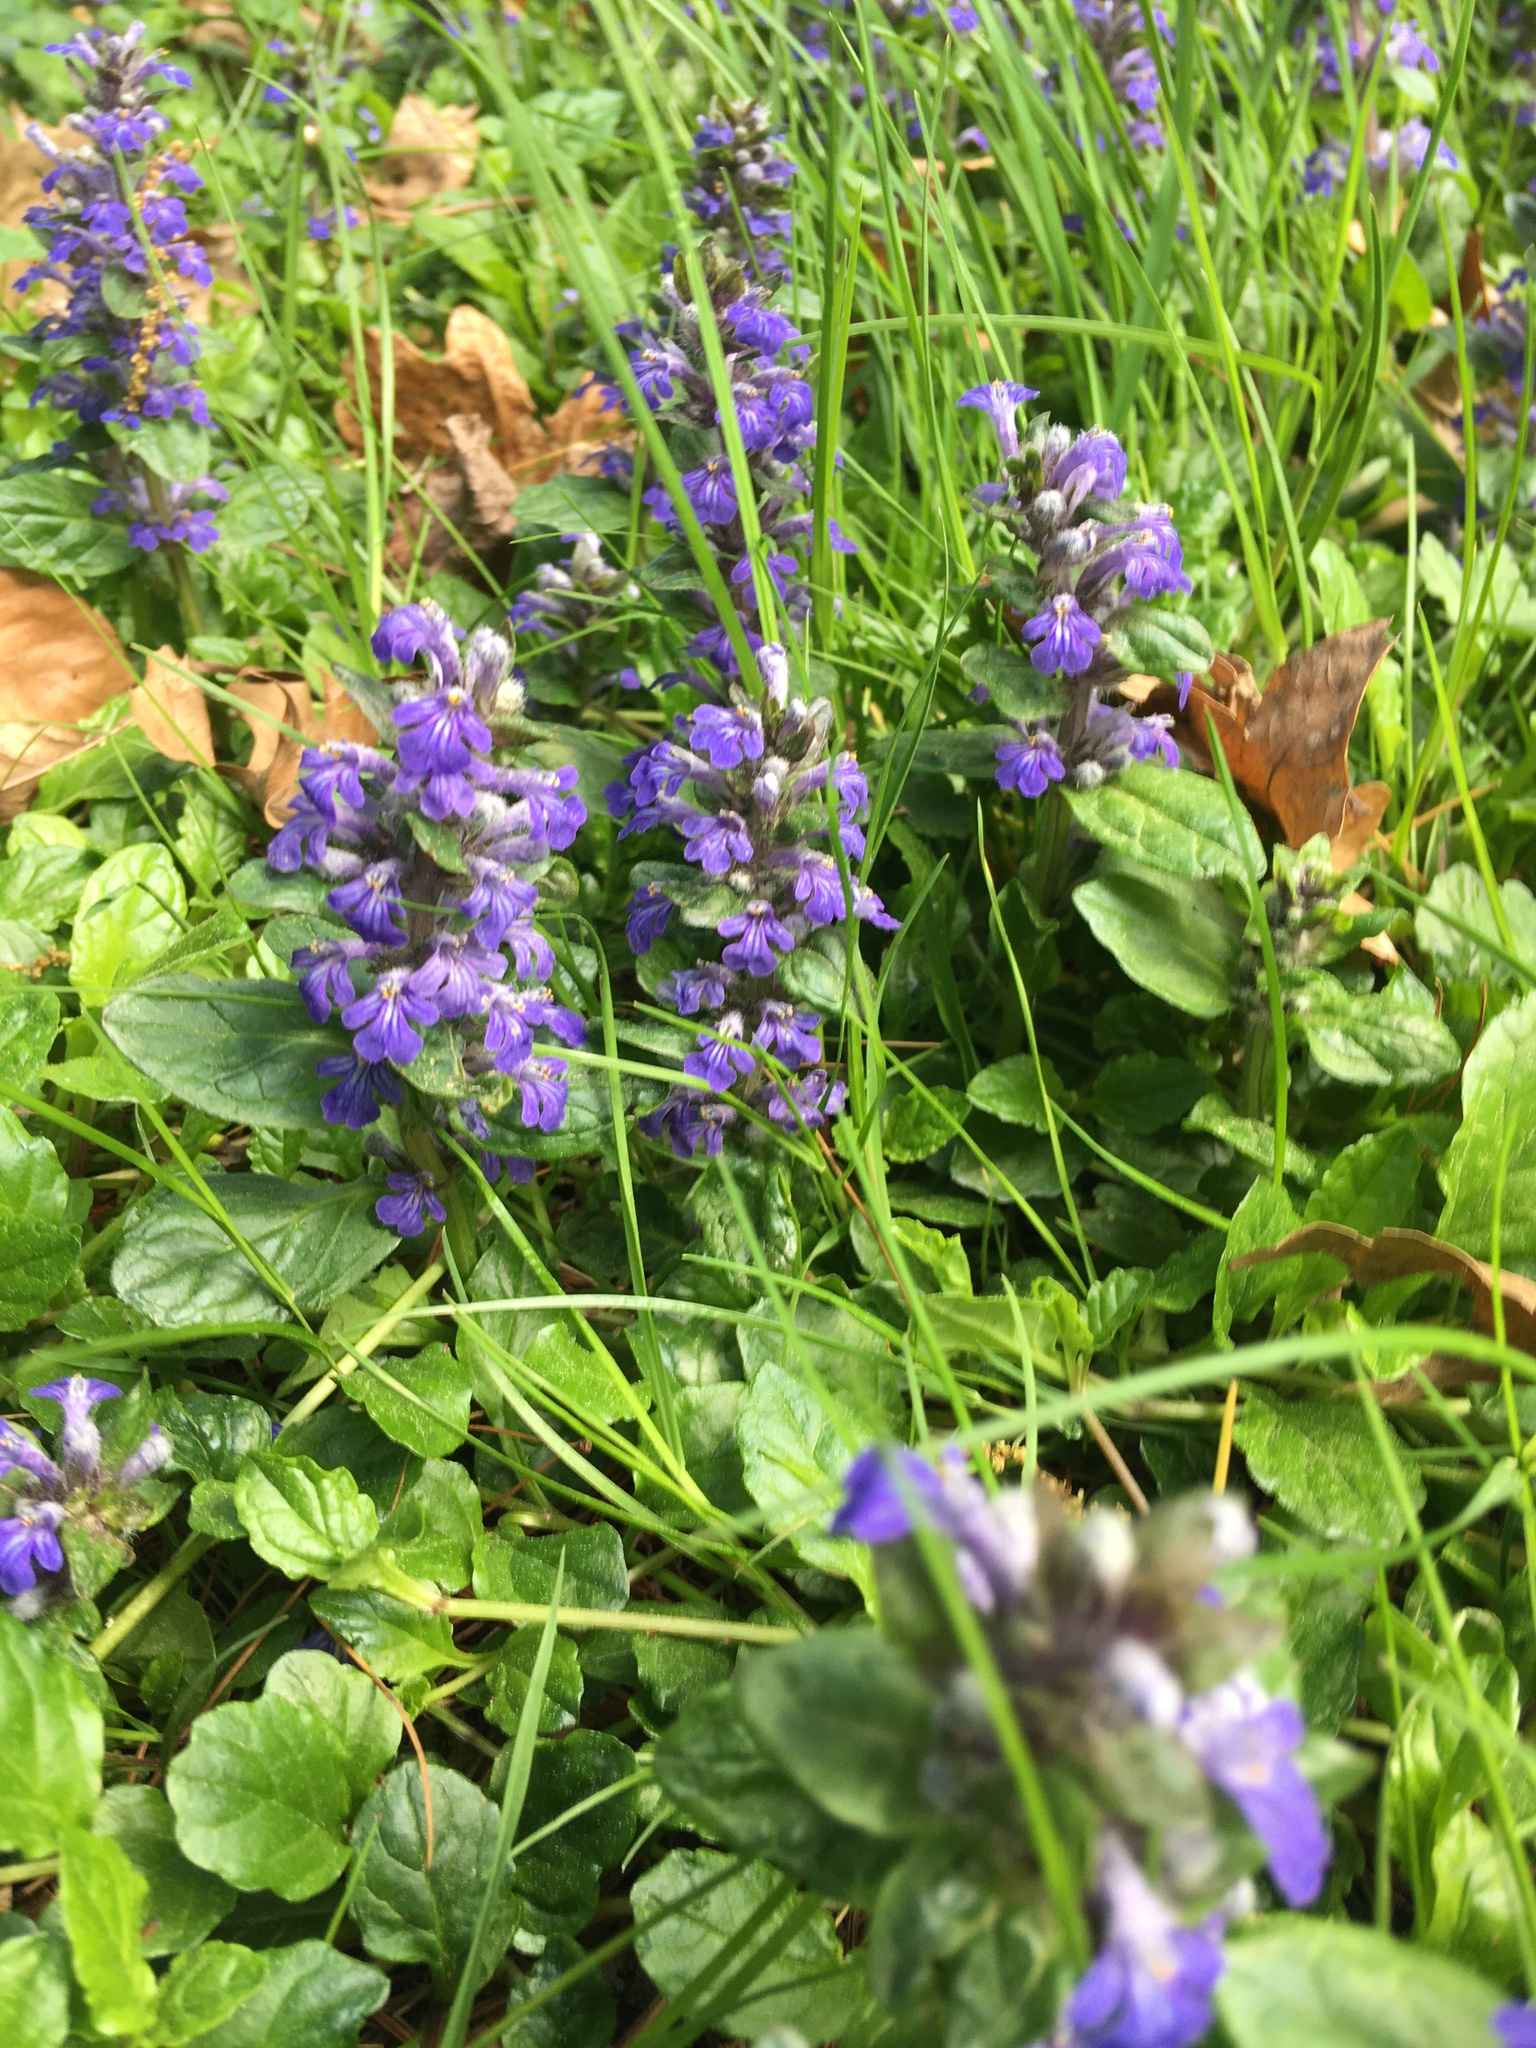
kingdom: Plantae
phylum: Tracheophyta
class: Magnoliopsida
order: Lamiales
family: Lamiaceae
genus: Ajuga
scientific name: Ajuga reptans
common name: Bugle
